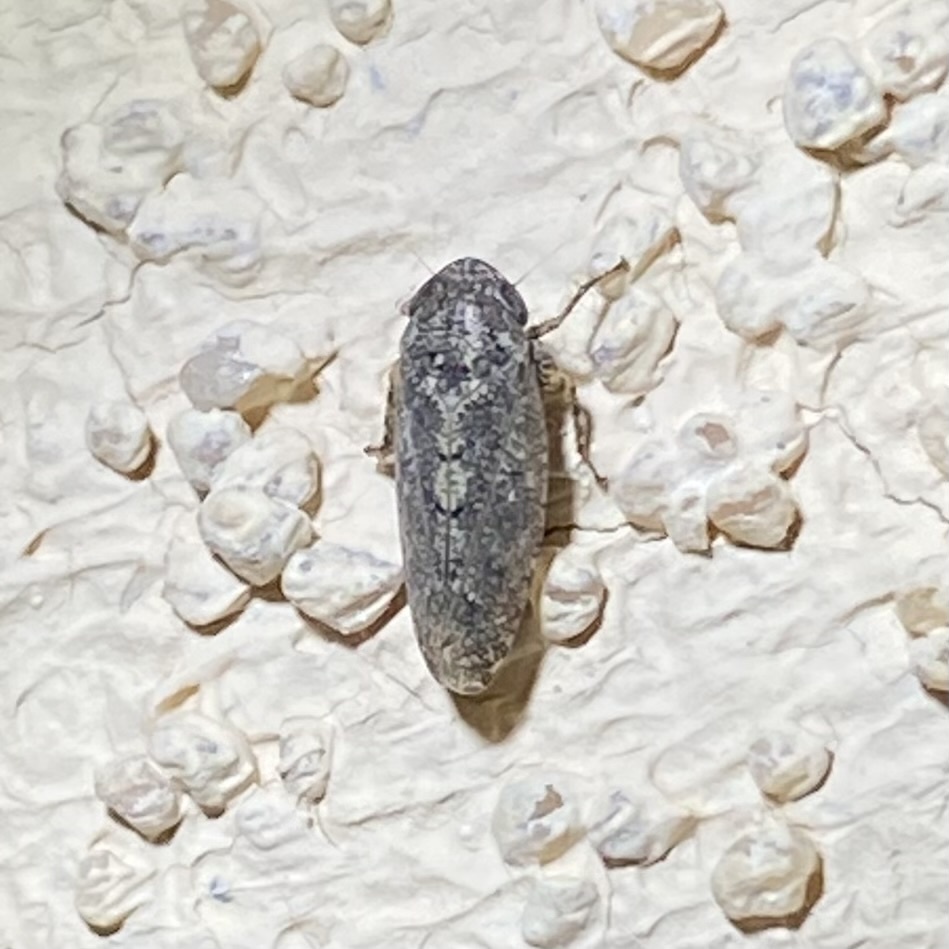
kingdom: Animalia
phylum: Arthropoda
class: Insecta
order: Hemiptera
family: Cicadellidae
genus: Texananus
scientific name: Texananus
